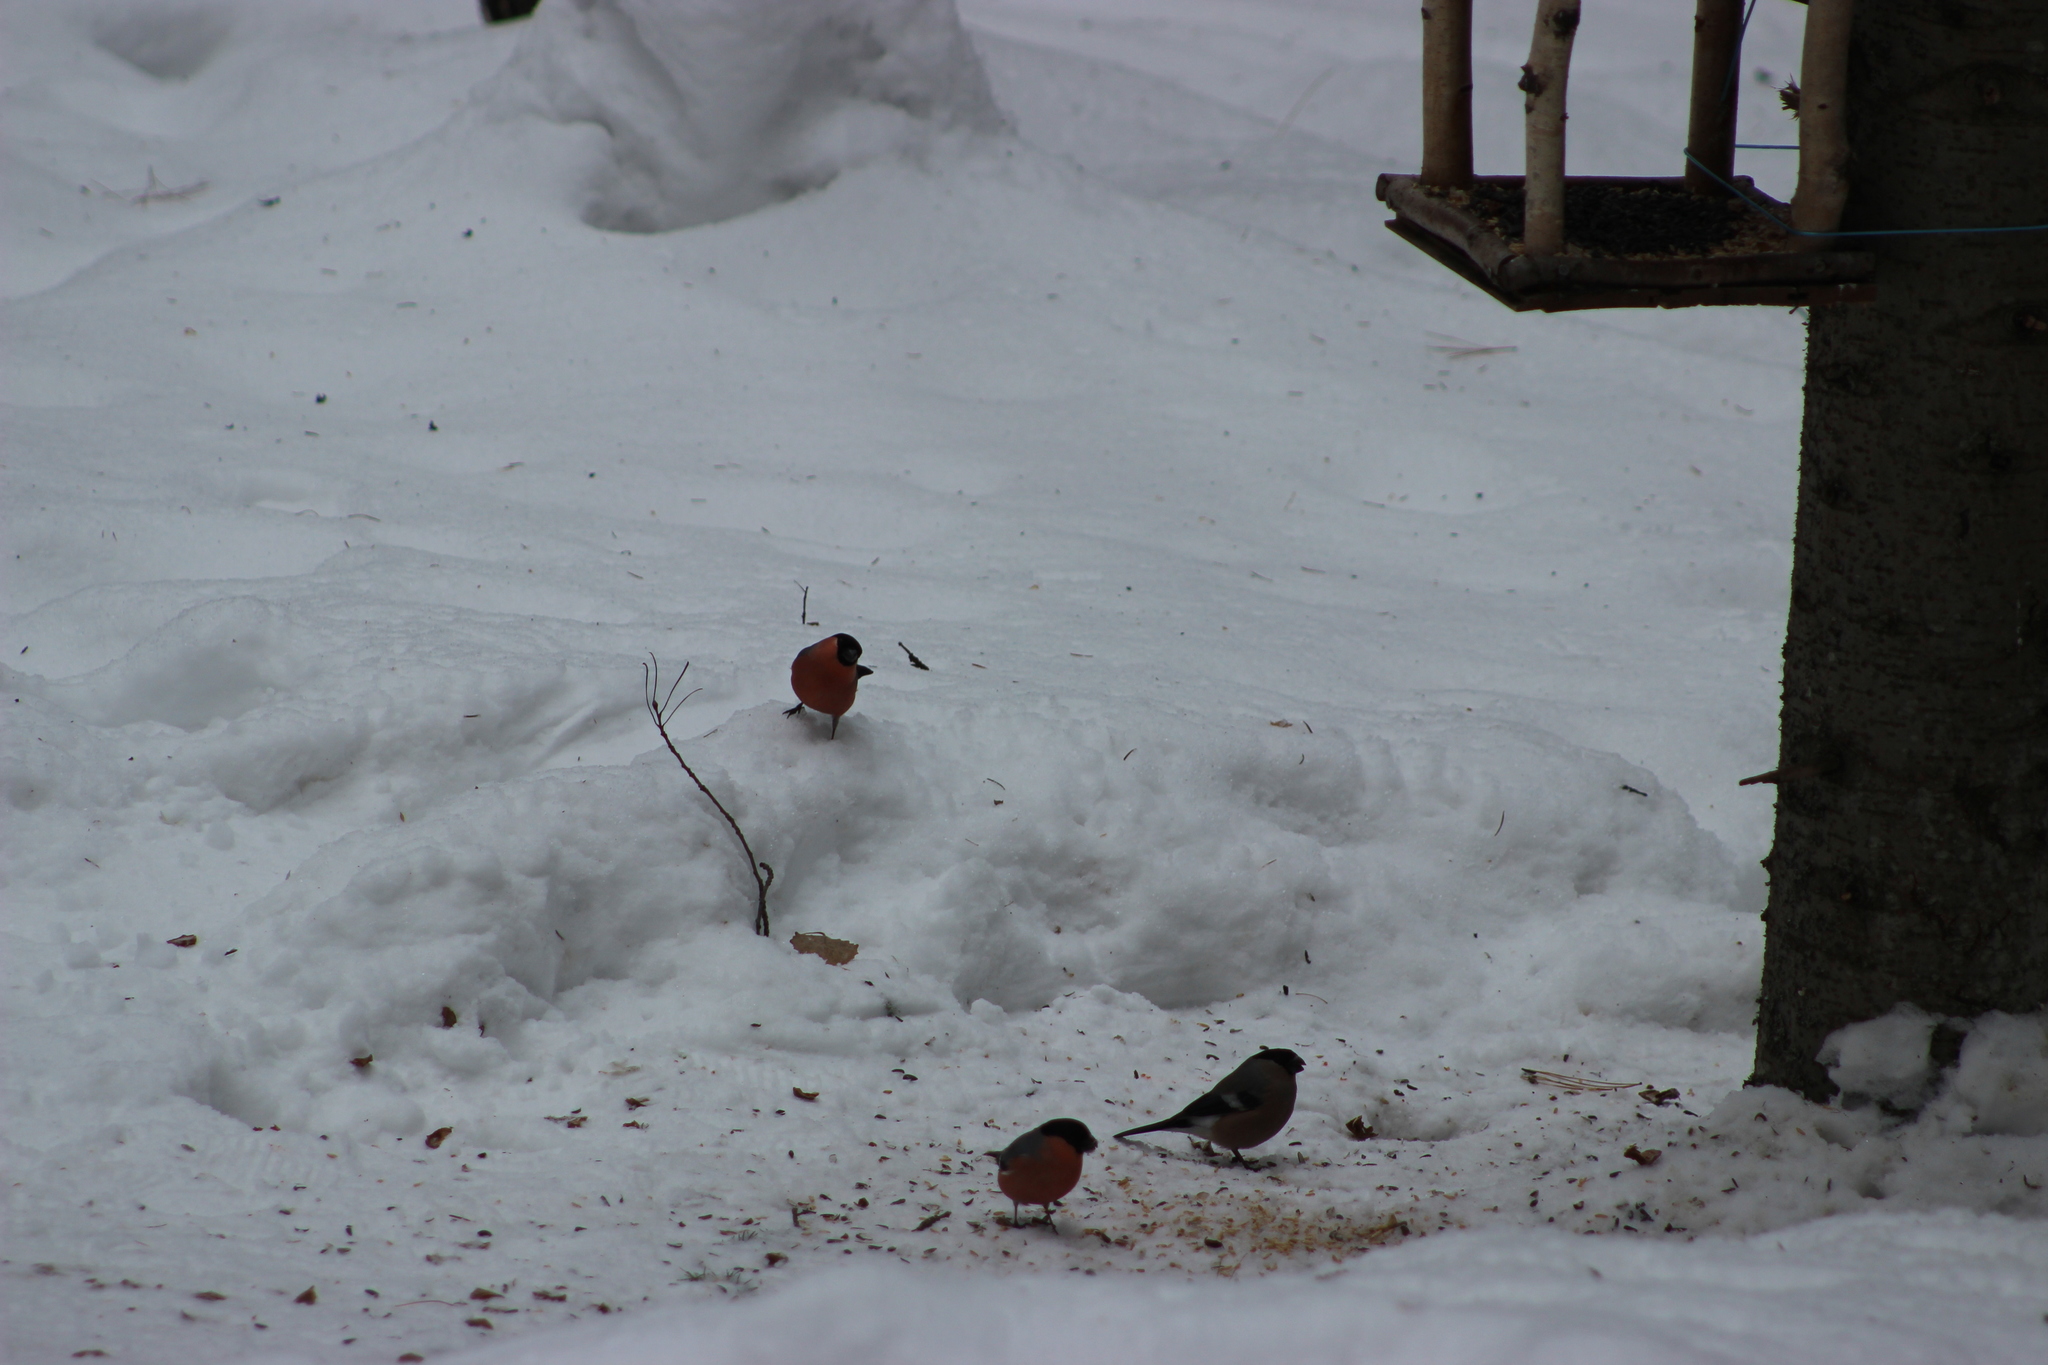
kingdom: Animalia
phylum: Chordata
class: Aves
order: Passeriformes
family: Fringillidae
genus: Pyrrhula
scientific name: Pyrrhula pyrrhula
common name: Eurasian bullfinch
